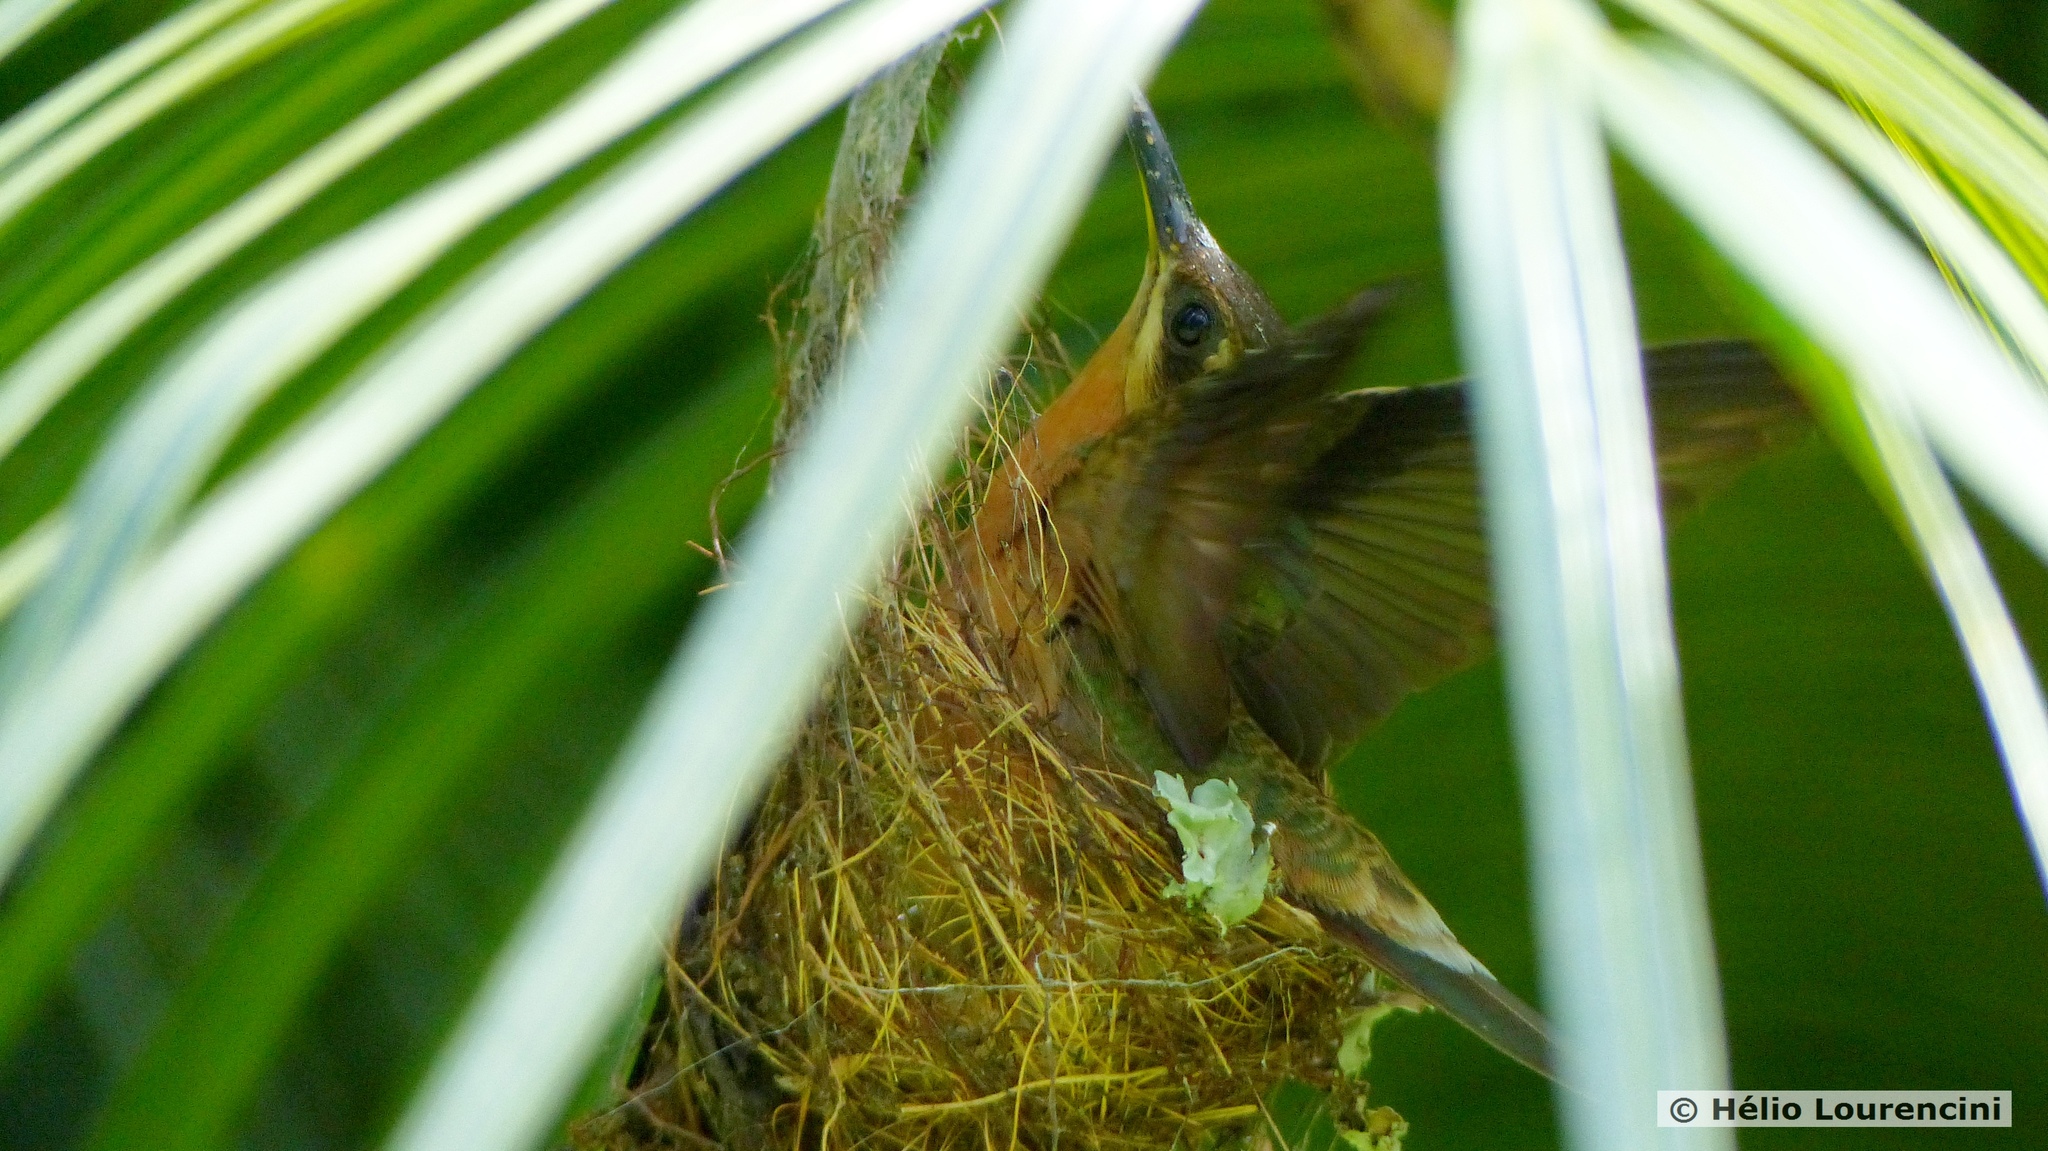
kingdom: Animalia
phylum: Chordata
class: Aves
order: Apodiformes
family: Trochilidae
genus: Glaucis
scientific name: Glaucis hirsutus
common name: Rufous-breasted hermit
